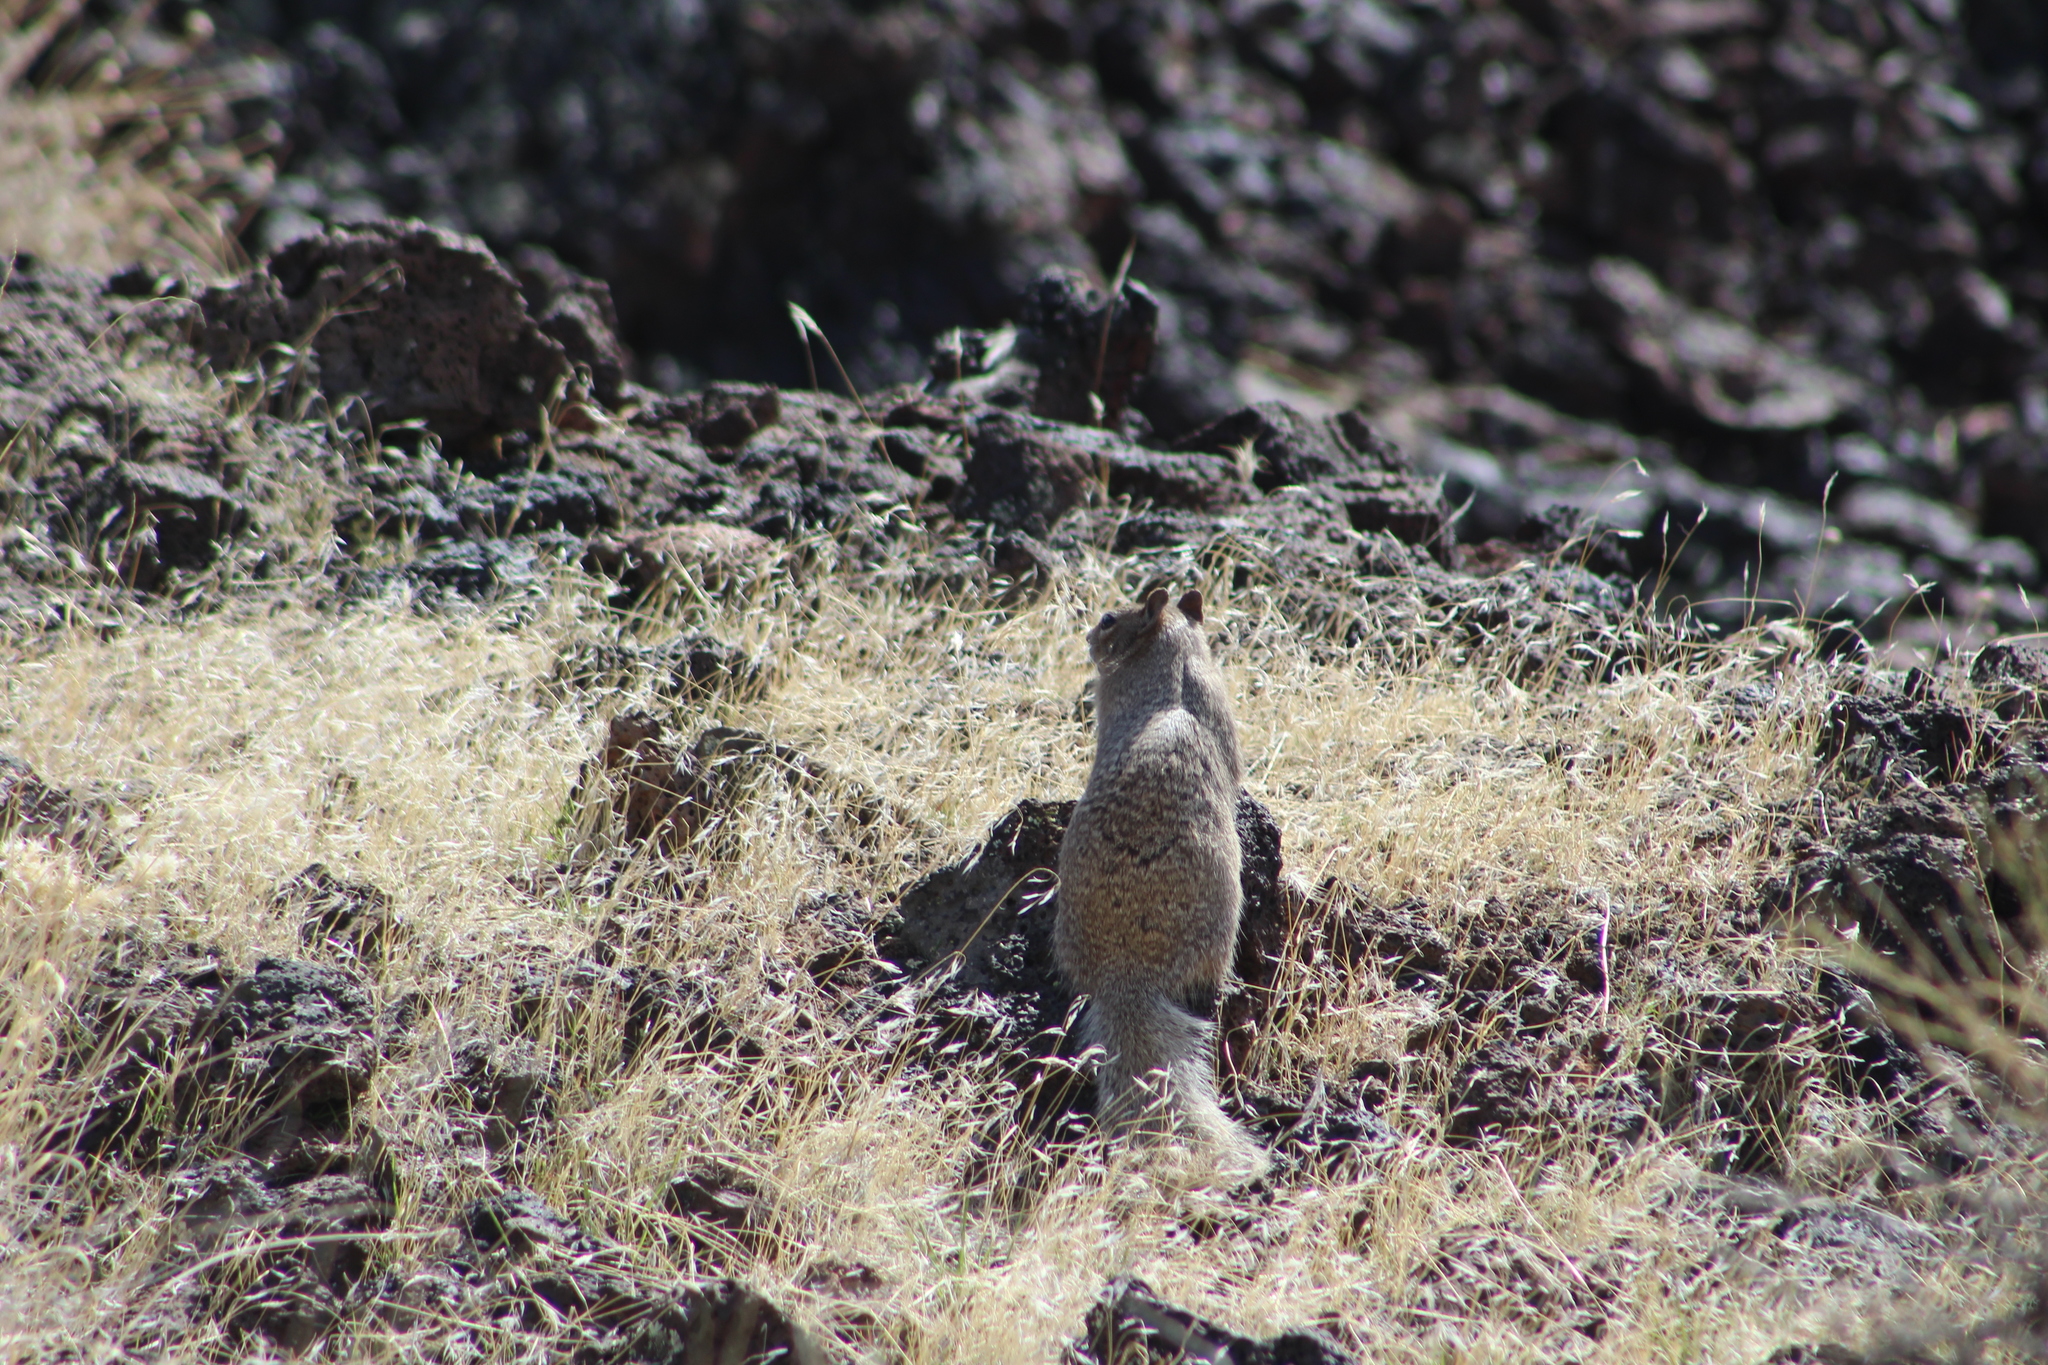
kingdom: Animalia
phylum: Chordata
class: Mammalia
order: Rodentia
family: Sciuridae
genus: Otospermophilus
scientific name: Otospermophilus variegatus
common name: Rock squirrel
